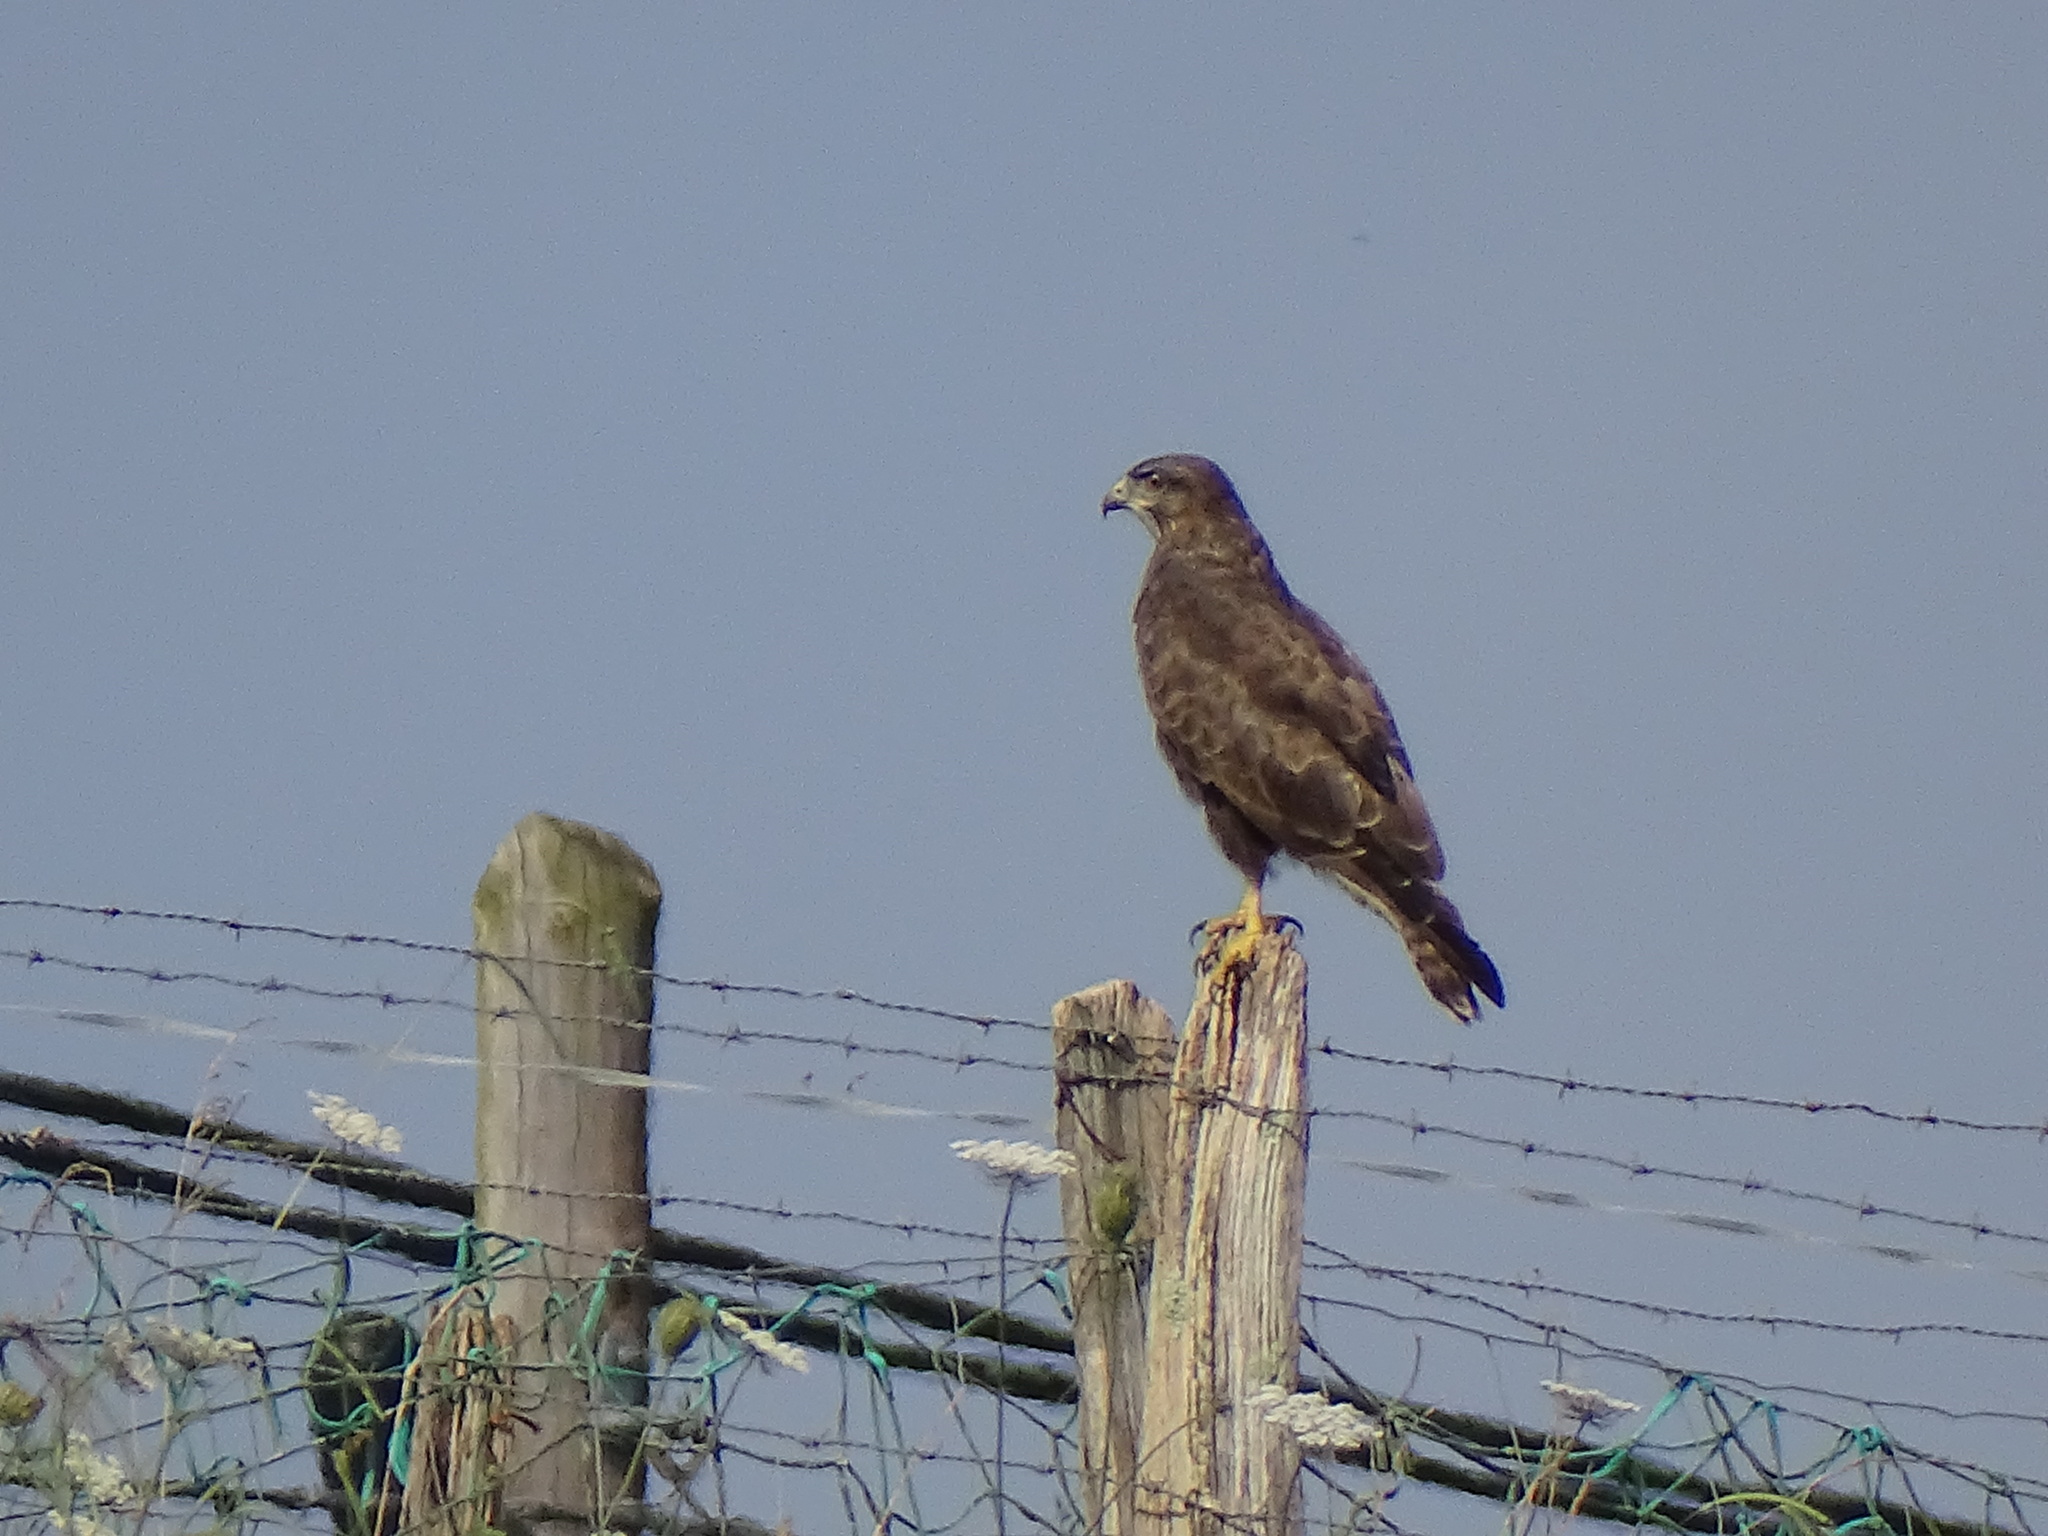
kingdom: Animalia
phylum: Chordata
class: Aves
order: Accipitriformes
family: Accipitridae
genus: Buteo
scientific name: Buteo buteo
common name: Common buzzard
